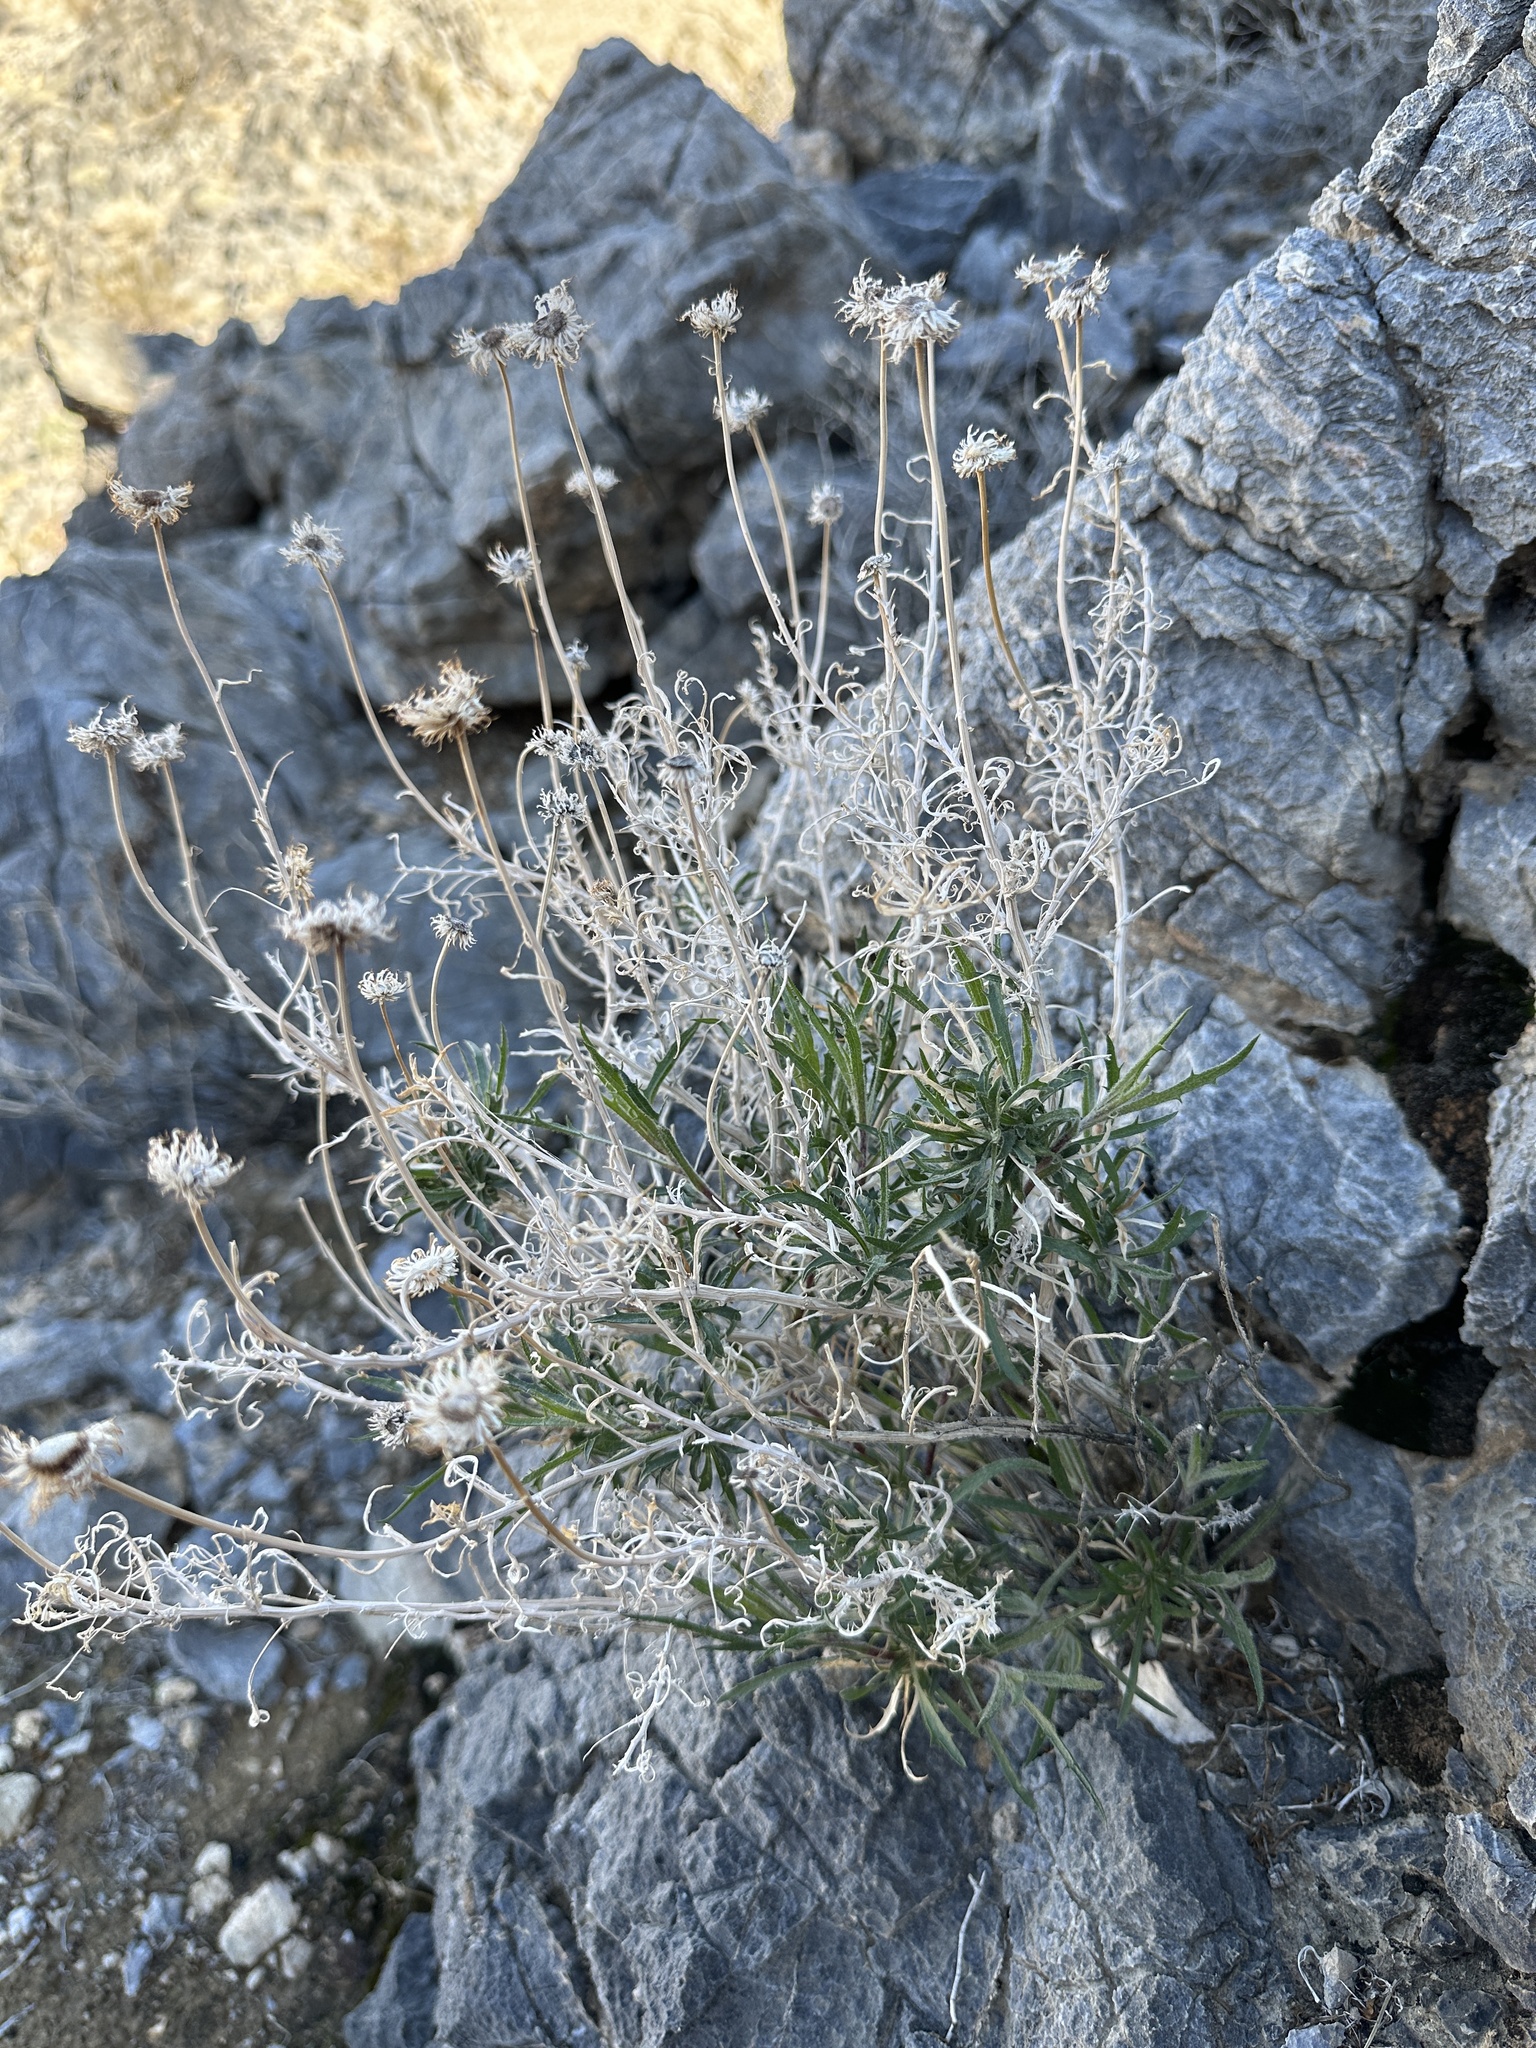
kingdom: Plantae
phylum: Tracheophyta
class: Magnoliopsida
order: Asterales
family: Asteraceae
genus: Xylorhiza
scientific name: Xylorhiza tortifolia
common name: Hurt-leaf woody-aster
